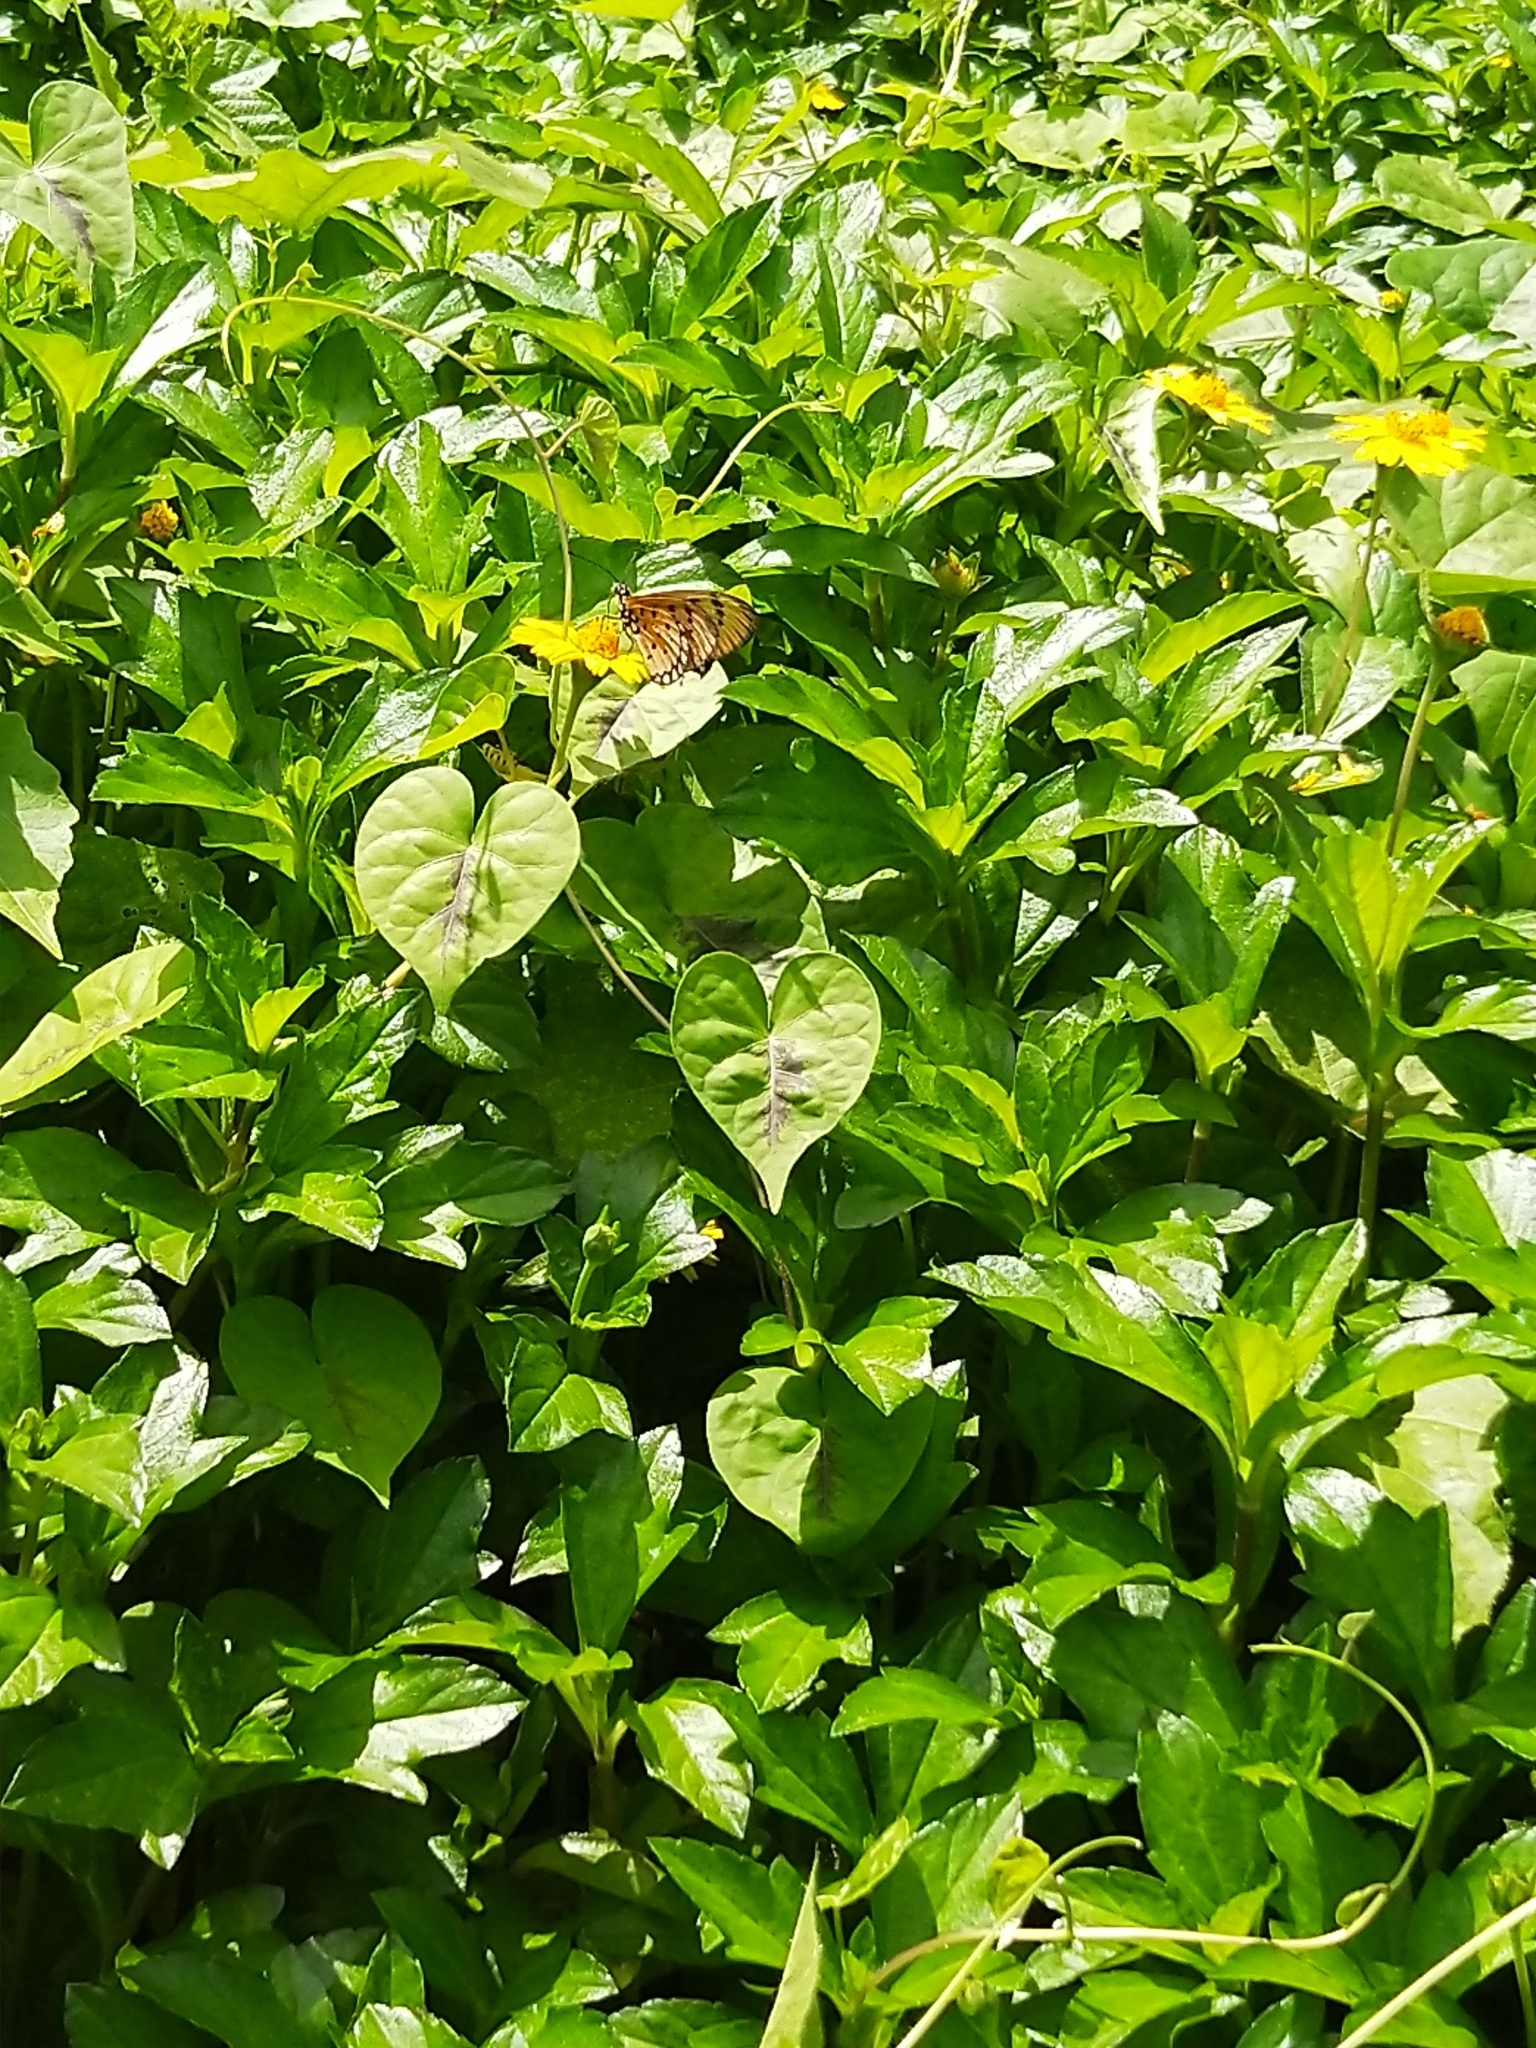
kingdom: Animalia
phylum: Arthropoda
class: Insecta
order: Lepidoptera
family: Nymphalidae
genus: Acraea
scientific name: Acraea terpsicore
